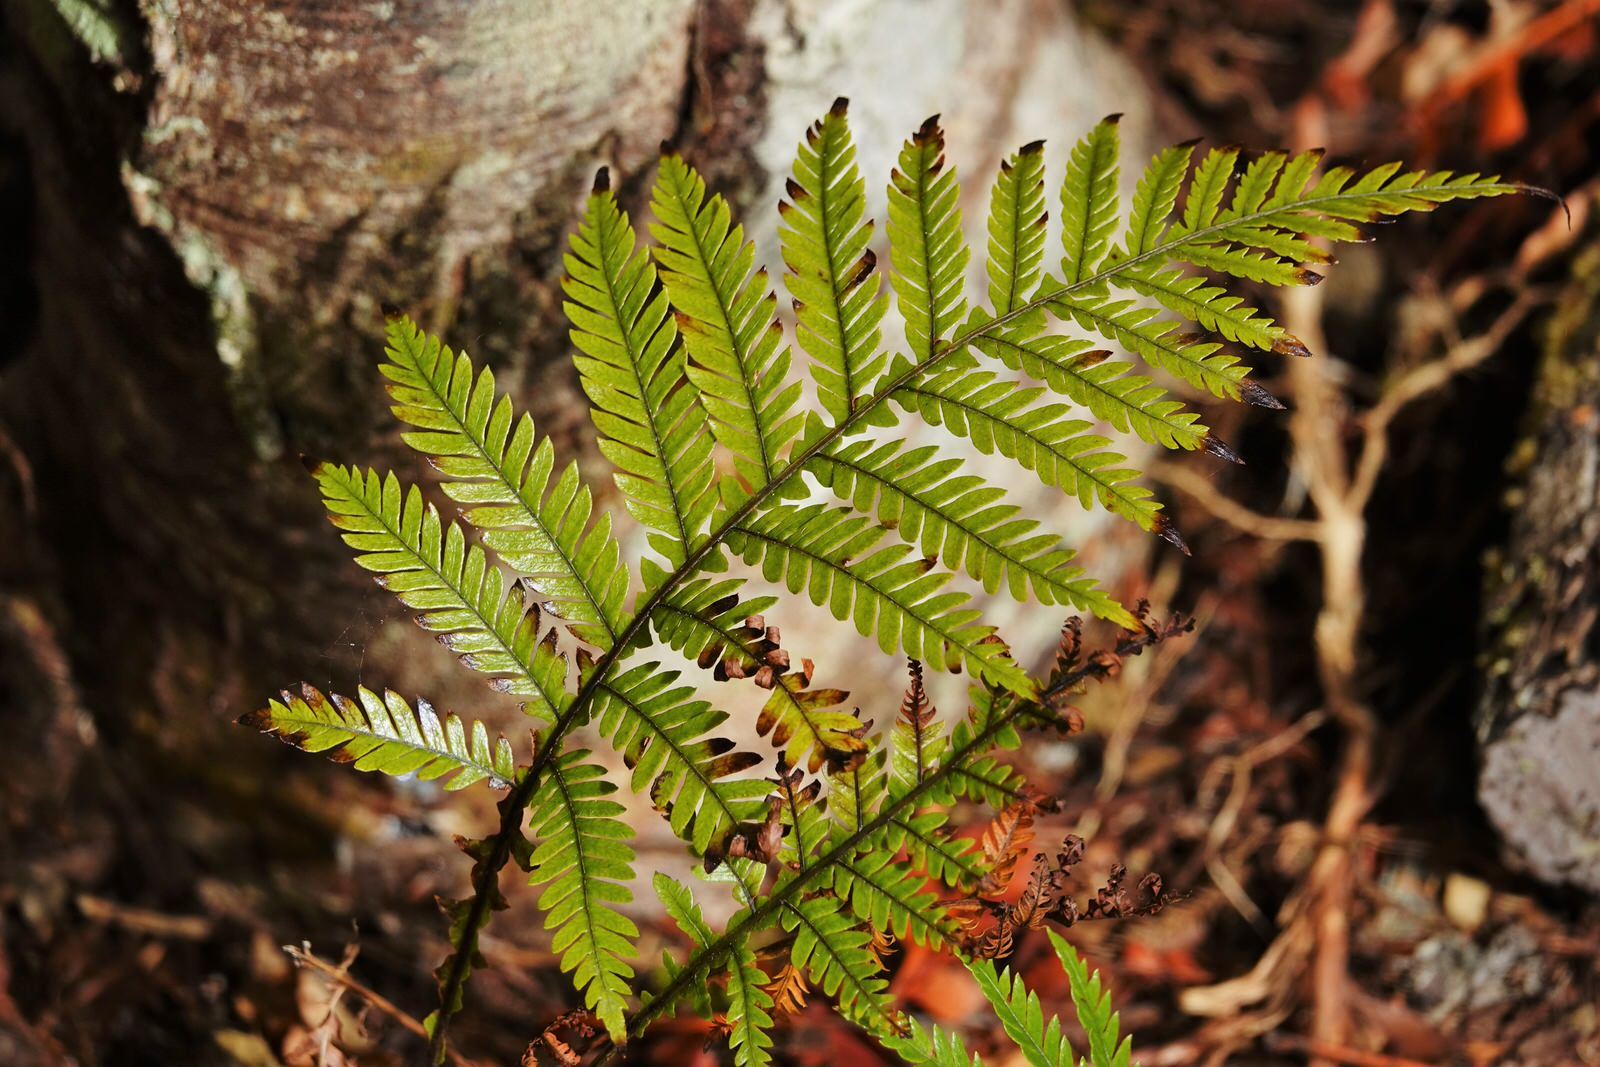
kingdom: Plantae
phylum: Tracheophyta
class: Polypodiopsida
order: Polypodiales
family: Blechnaceae
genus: Diploblechnum
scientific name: Diploblechnum fraseri
